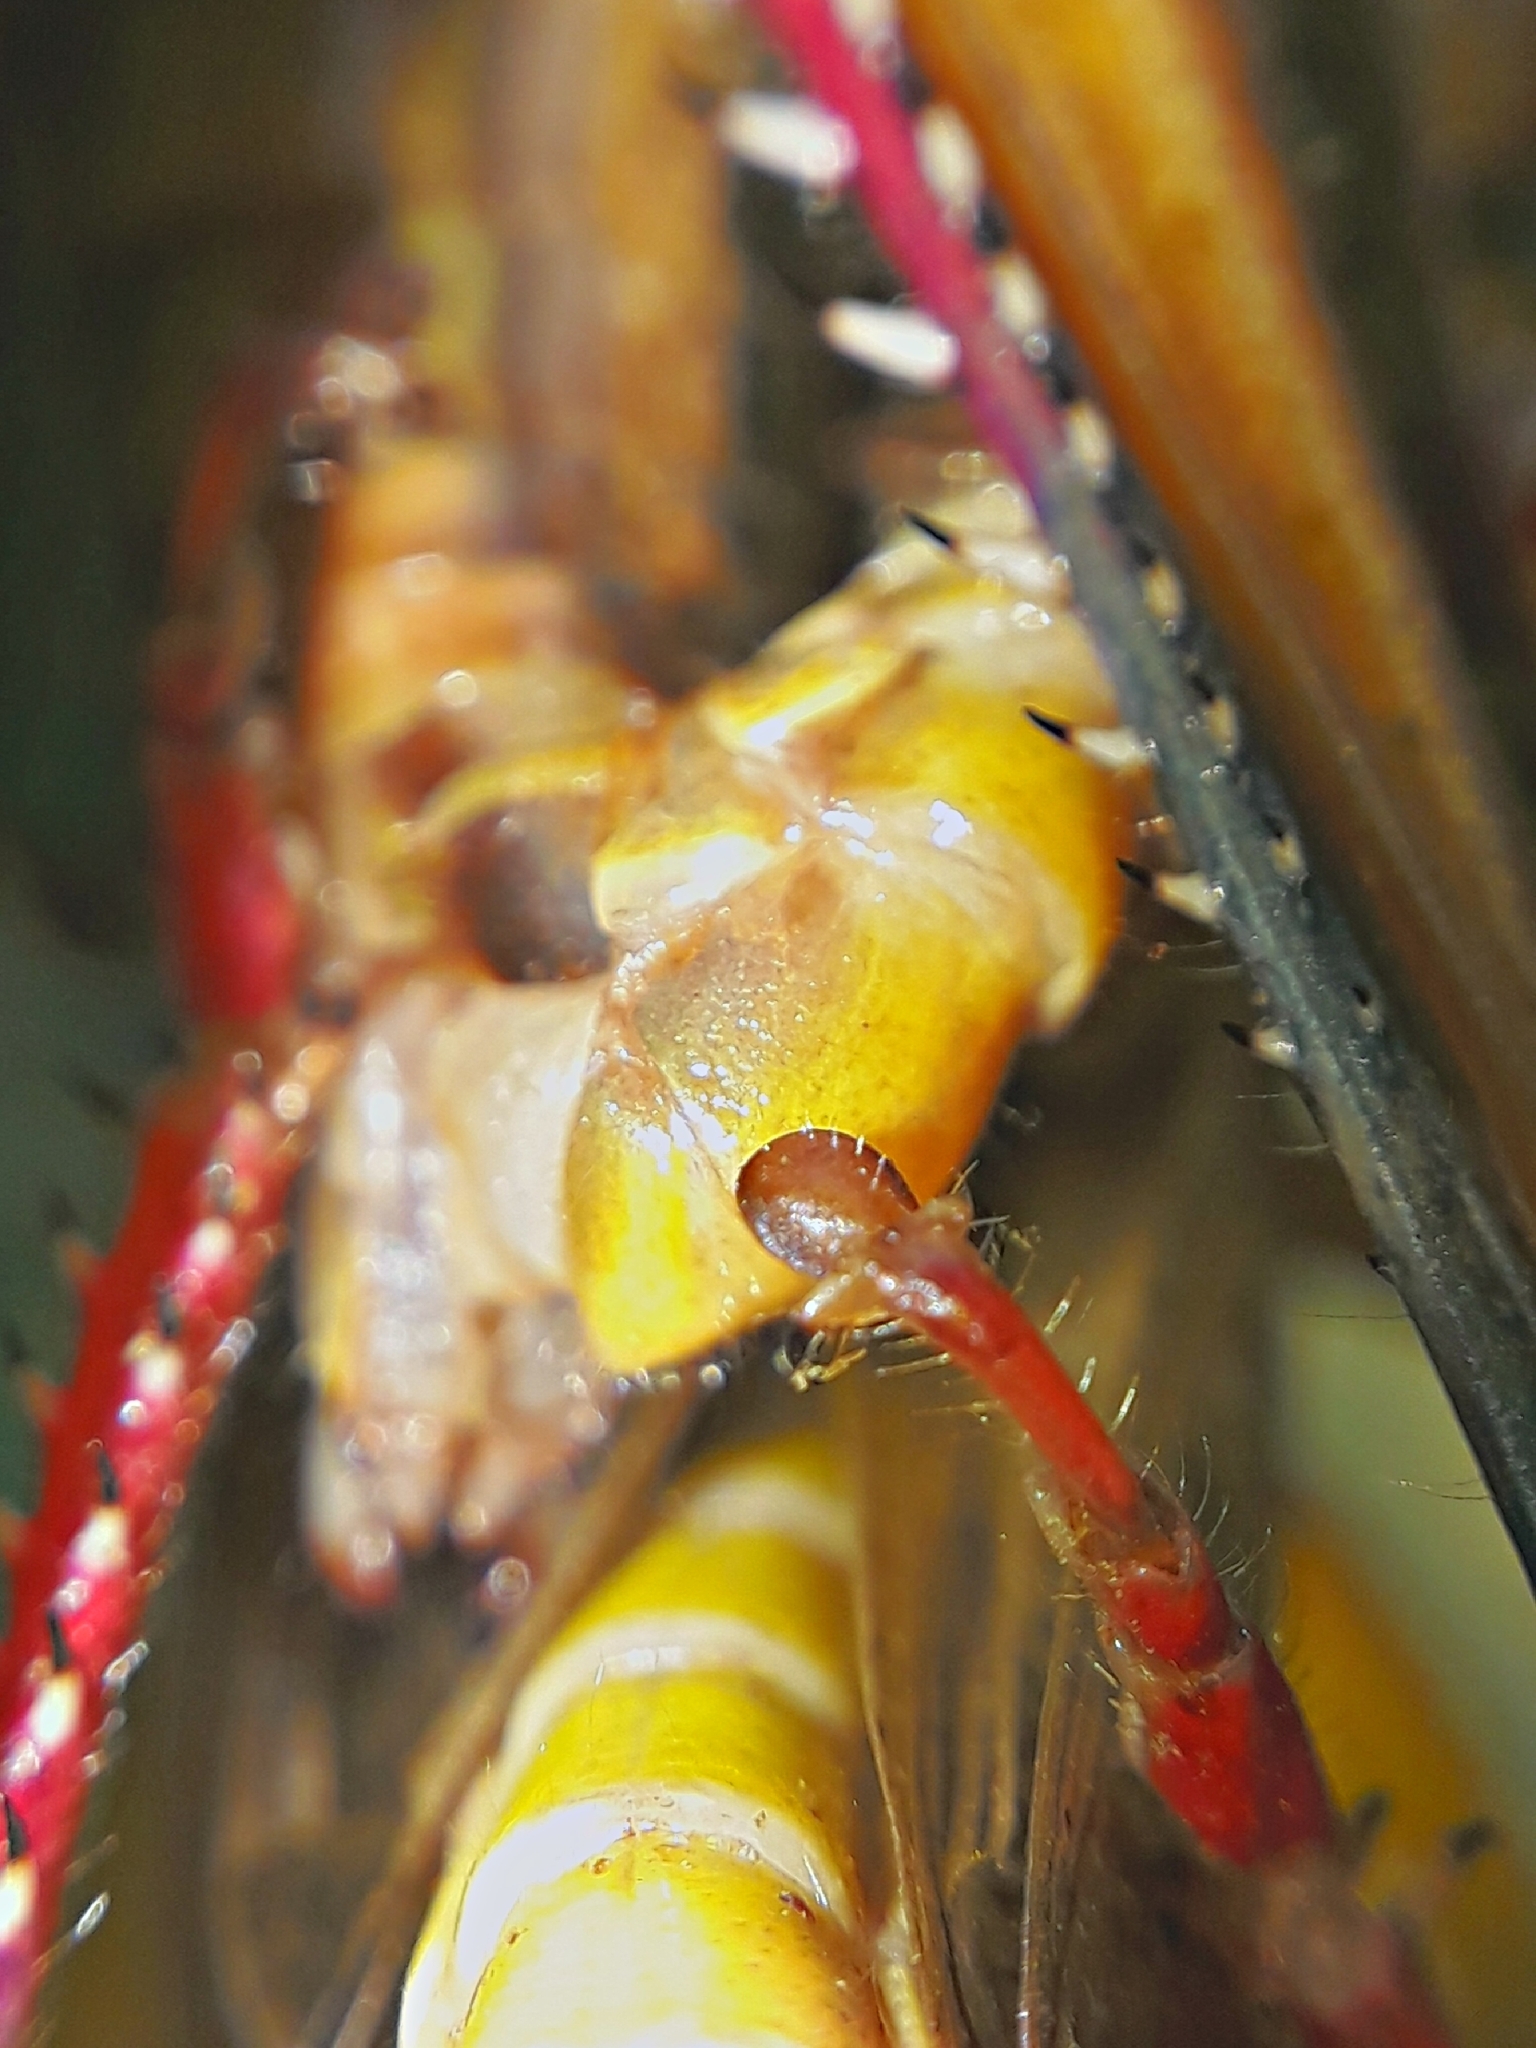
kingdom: Animalia
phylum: Arthropoda
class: Insecta
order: Orthoptera
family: Acrididae
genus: Eyprepocnemis
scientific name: Eyprepocnemis plorans
